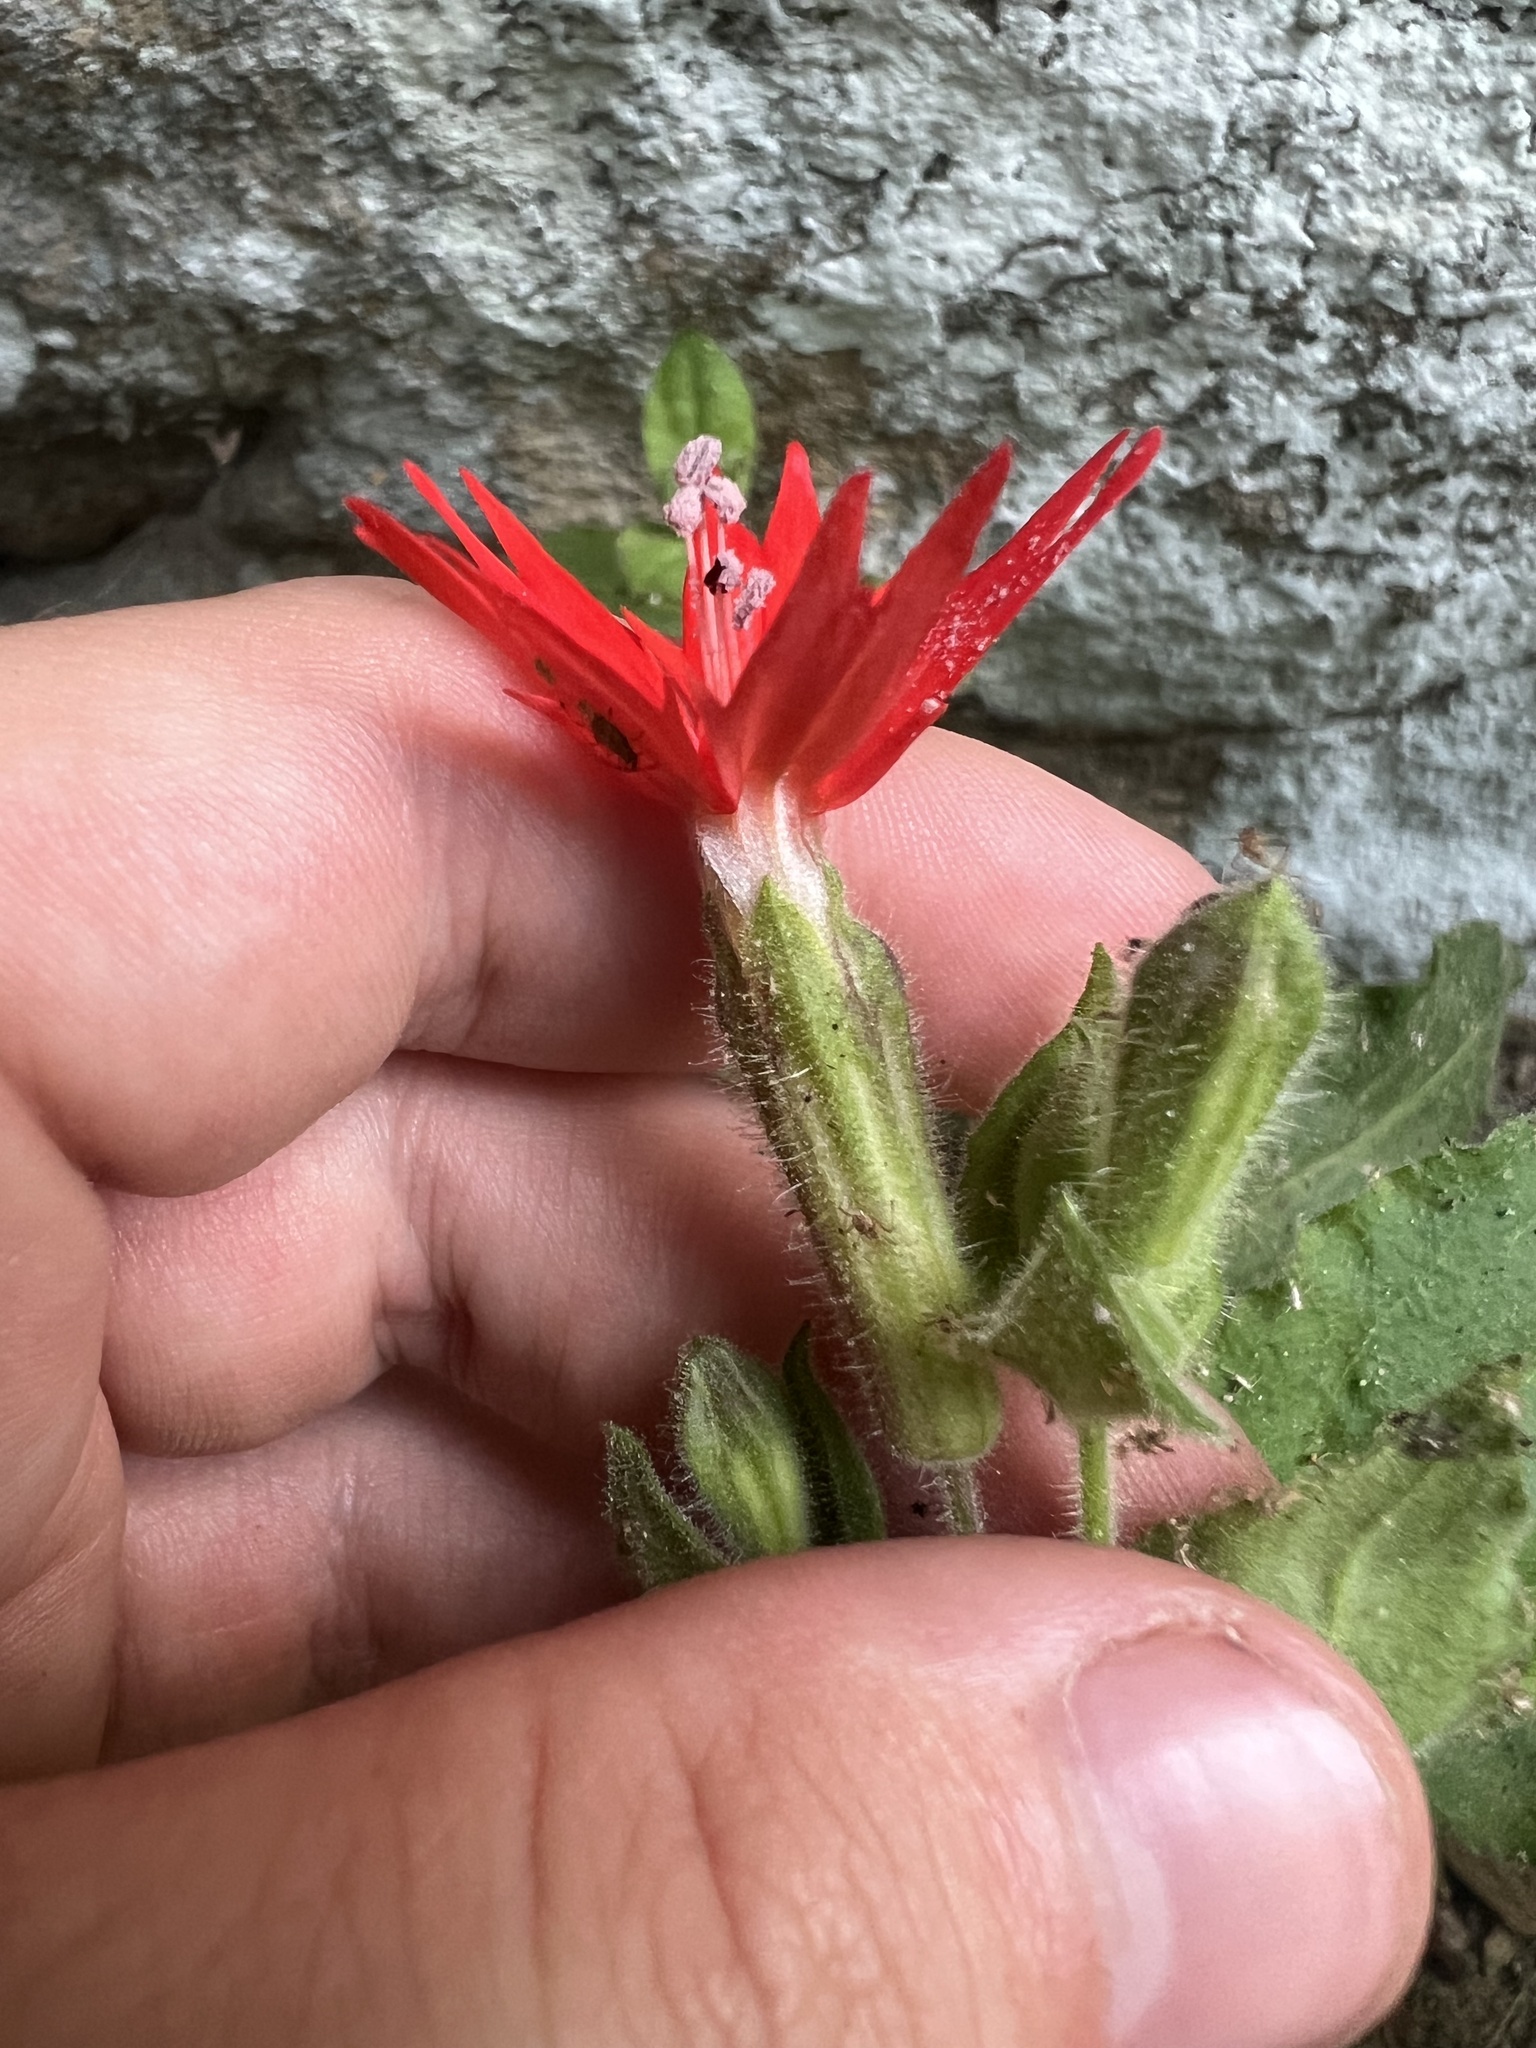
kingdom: Plantae
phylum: Tracheophyta
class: Magnoliopsida
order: Caryophyllales
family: Caryophyllaceae
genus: Silene
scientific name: Silene rotundifolia
